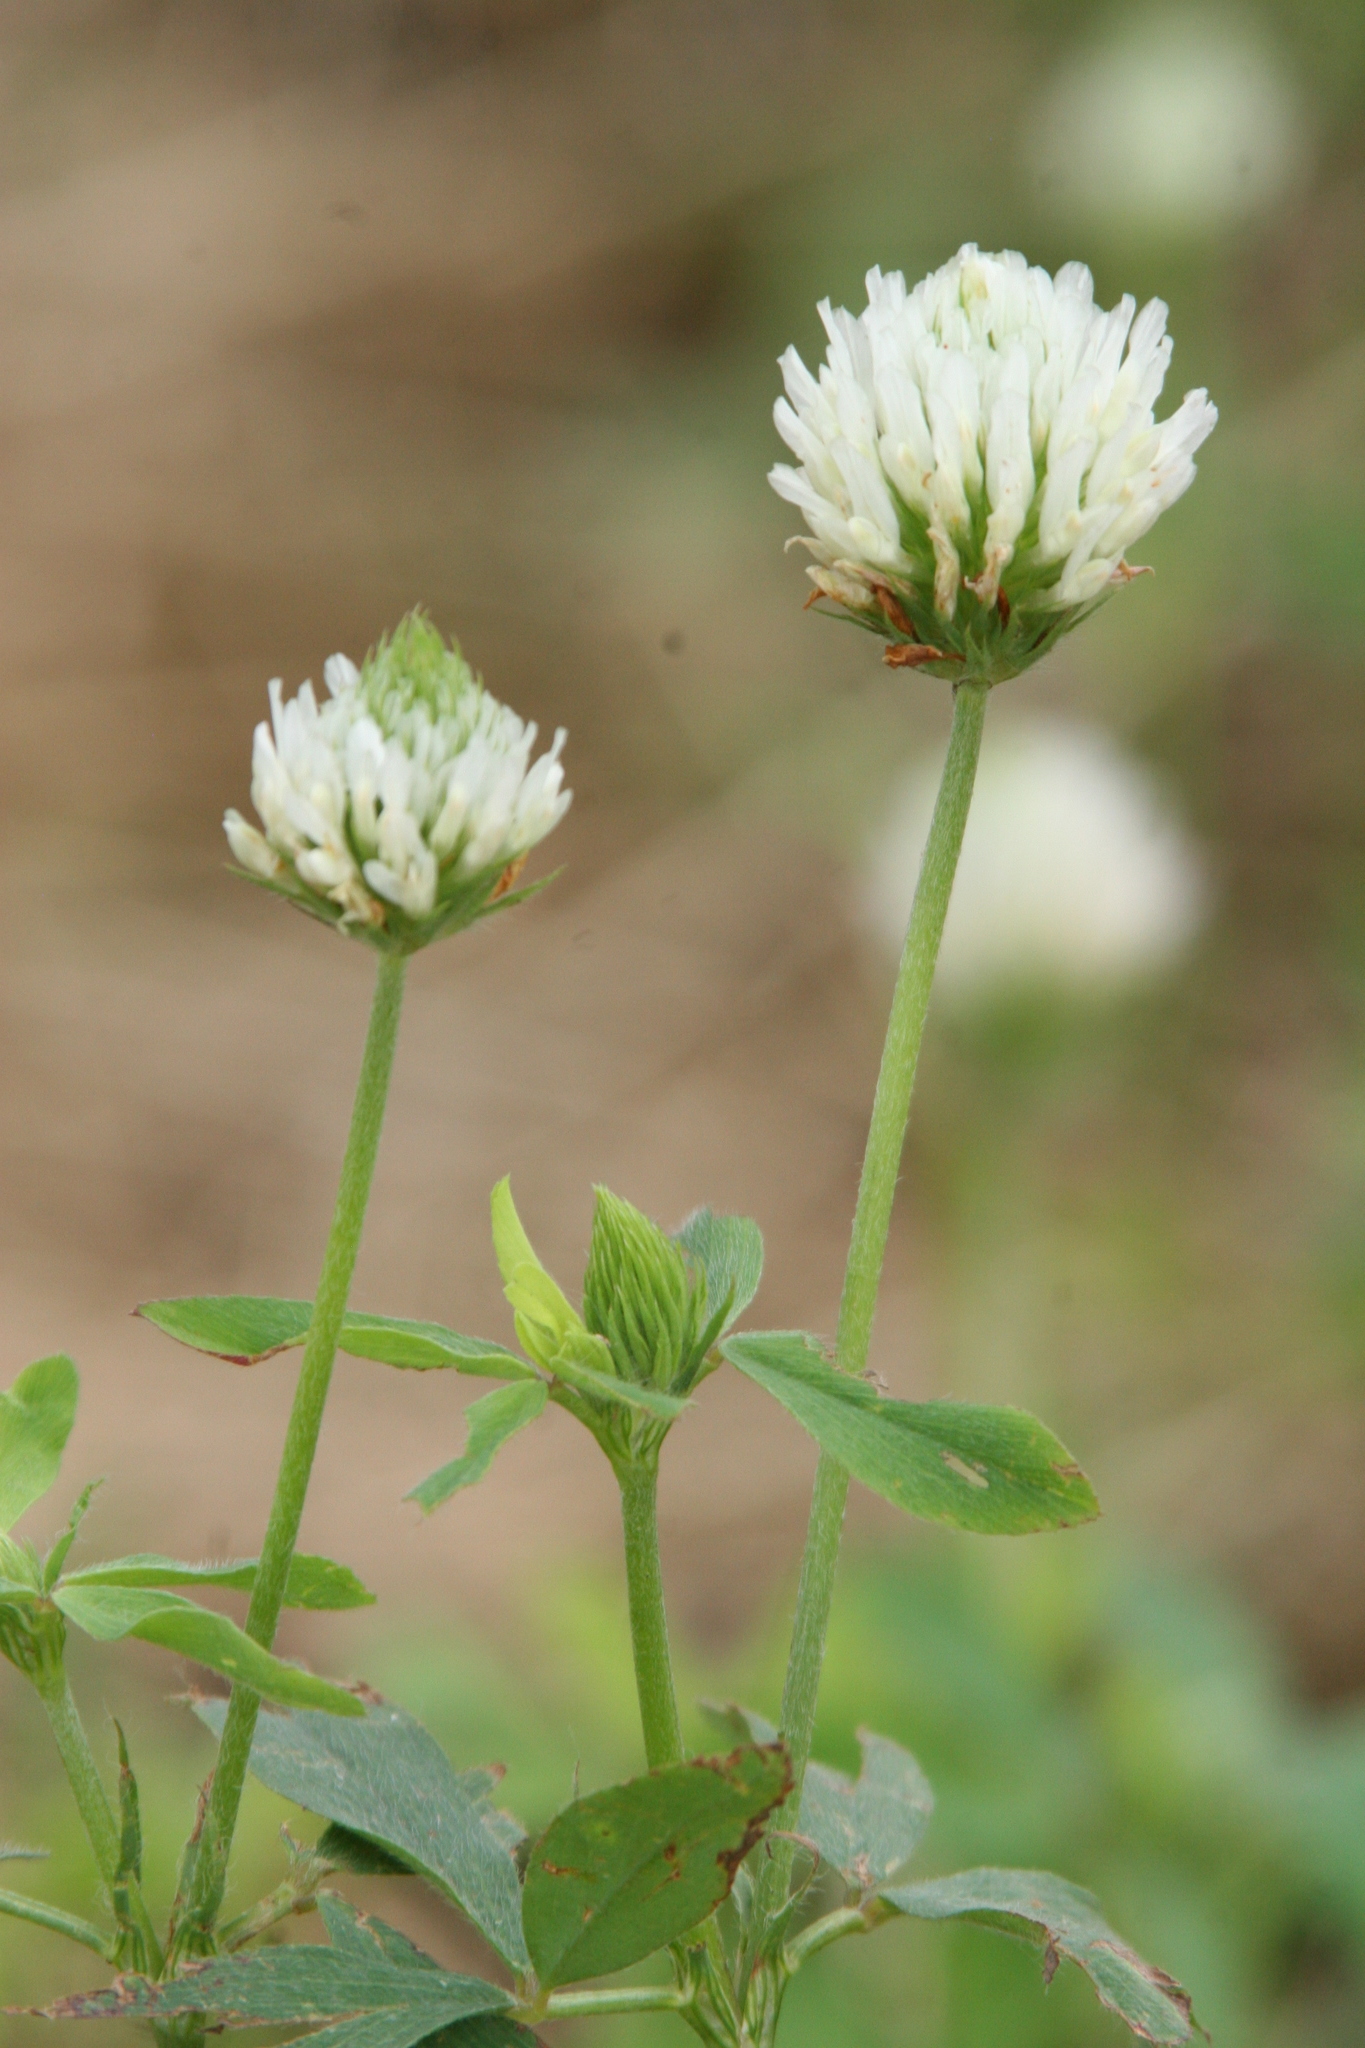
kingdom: Plantae
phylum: Tracheophyta
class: Magnoliopsida
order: Fabales
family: Fabaceae
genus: Trifolium
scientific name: Trifolium repens
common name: White clover
